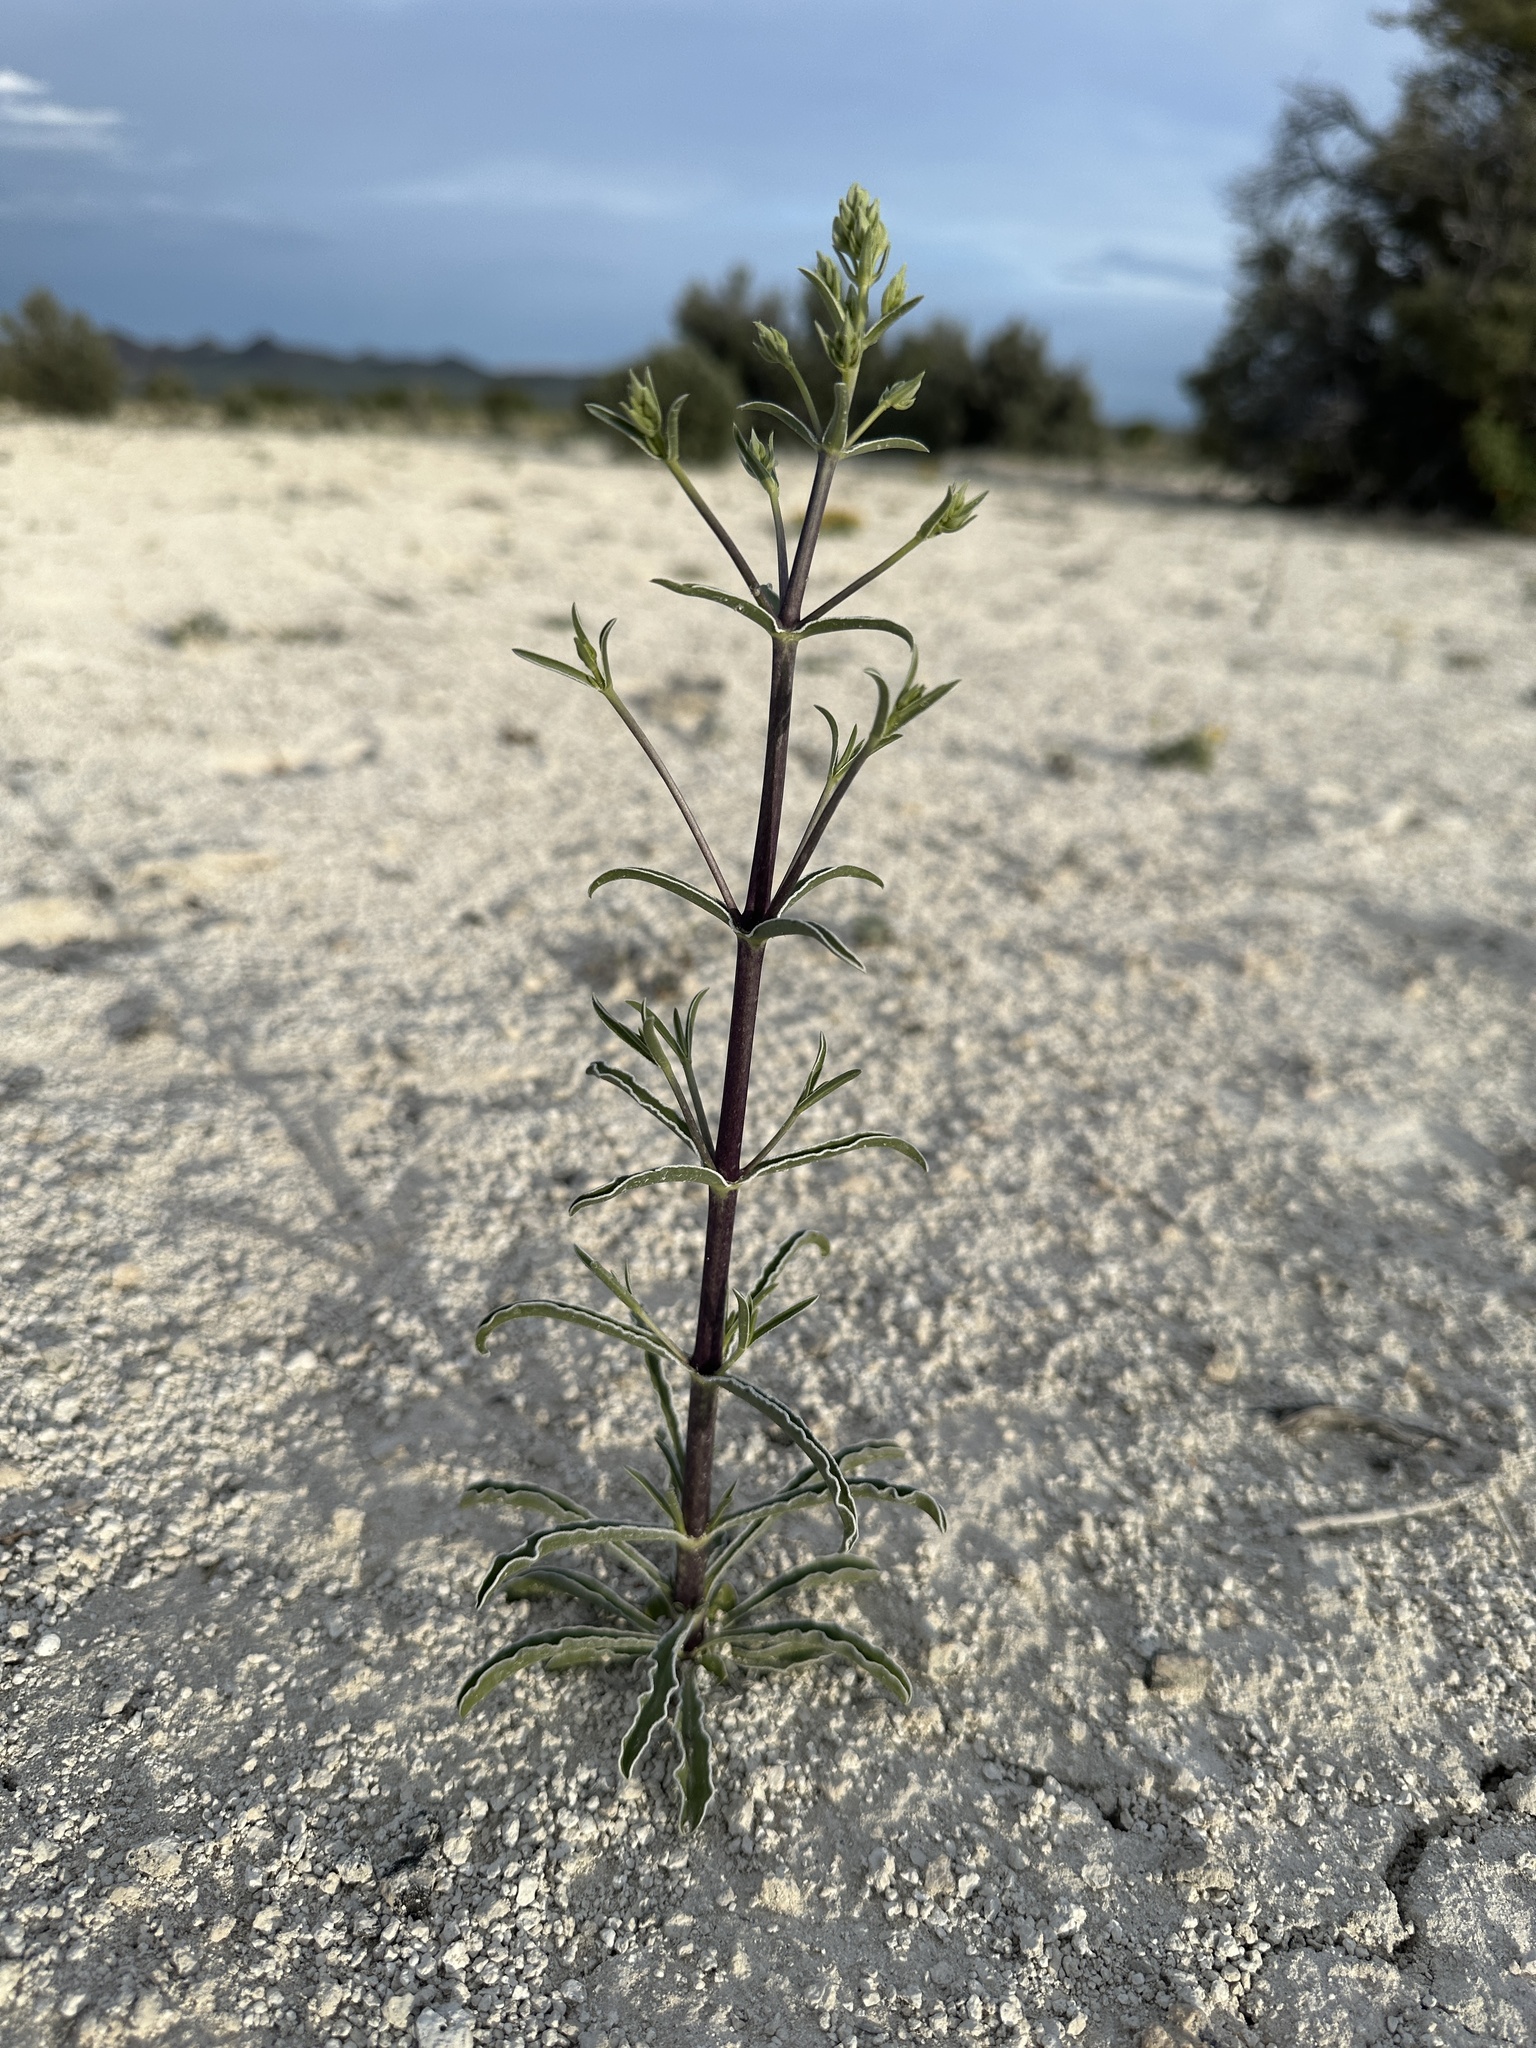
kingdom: Plantae
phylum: Tracheophyta
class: Magnoliopsida
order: Gentianales
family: Gentianaceae
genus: Frasera
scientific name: Frasera albomarginata
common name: Desert frasera
